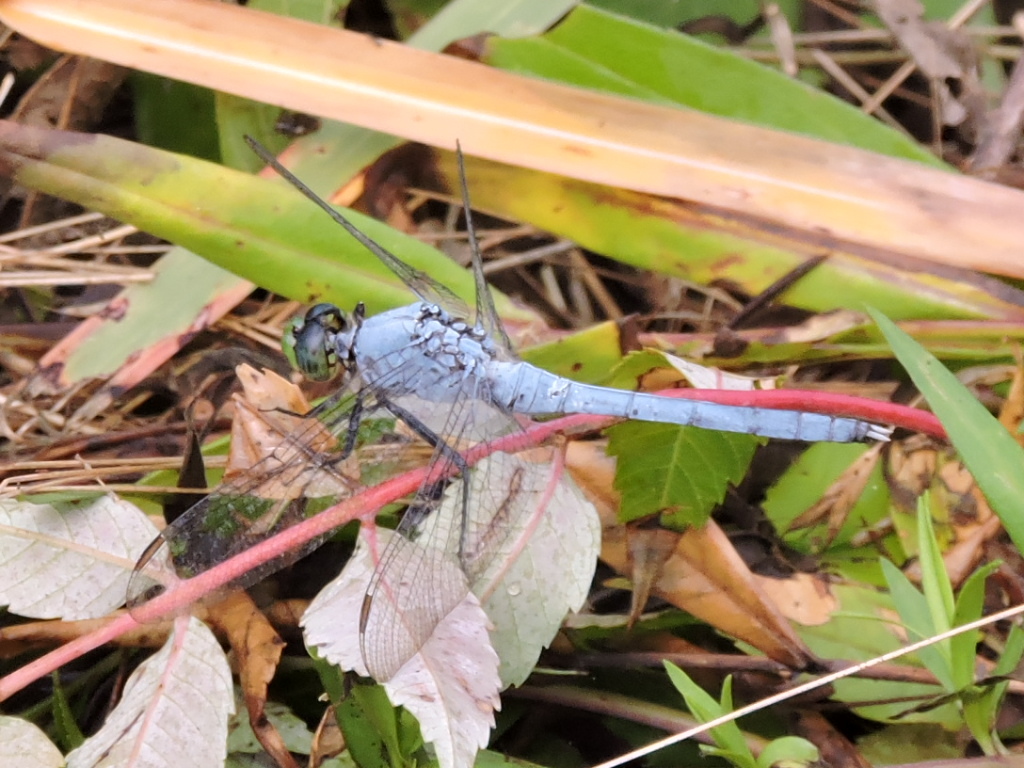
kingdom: Animalia
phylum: Arthropoda
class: Insecta
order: Odonata
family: Libellulidae
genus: Erythemis
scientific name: Erythemis simplicicollis
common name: Eastern pondhawk
